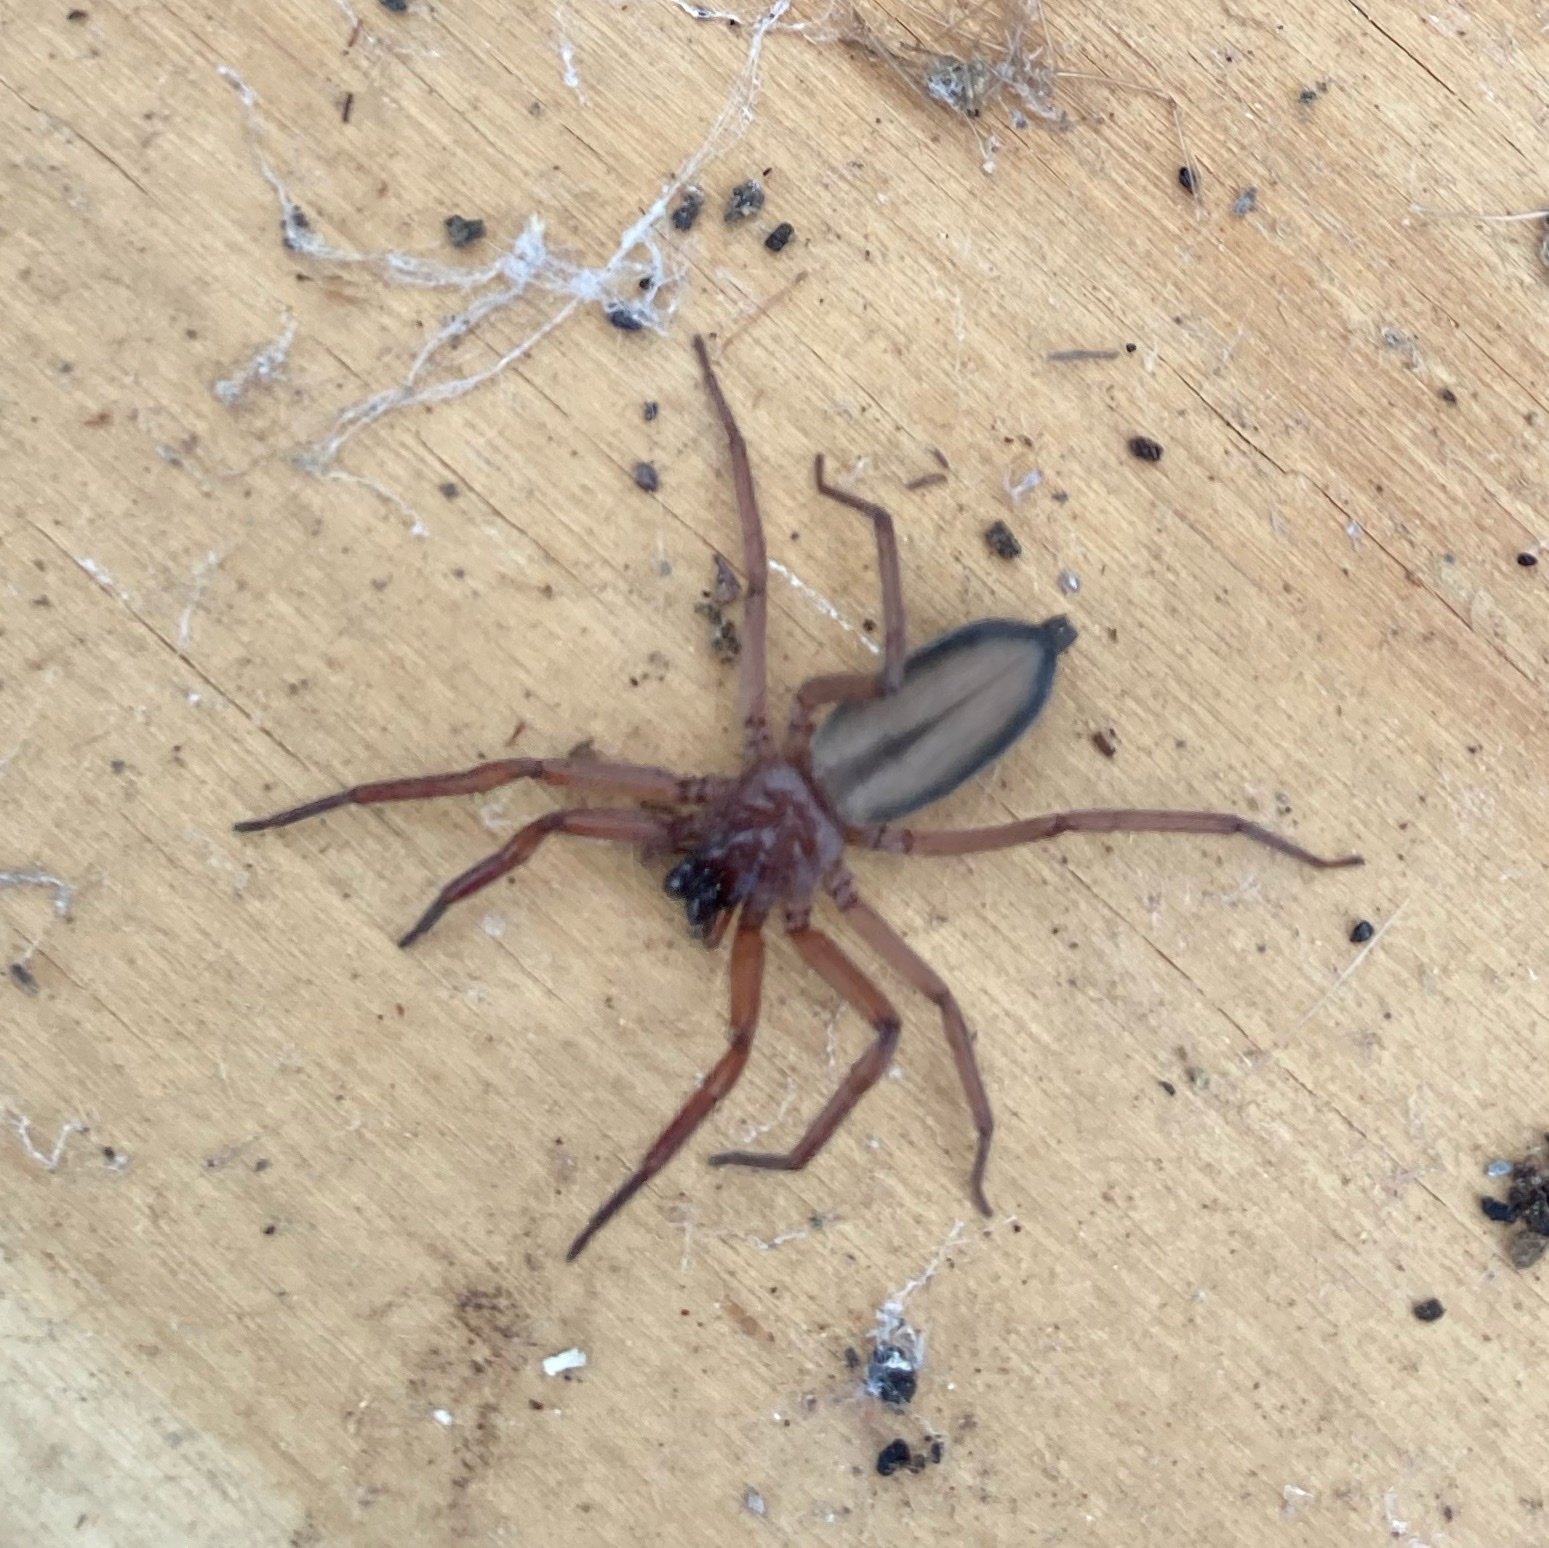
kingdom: Animalia
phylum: Arthropoda
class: Arachnida
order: Araneae
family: Trochanteriidae
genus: Hemicloea
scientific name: Hemicloea rogenhoferi
